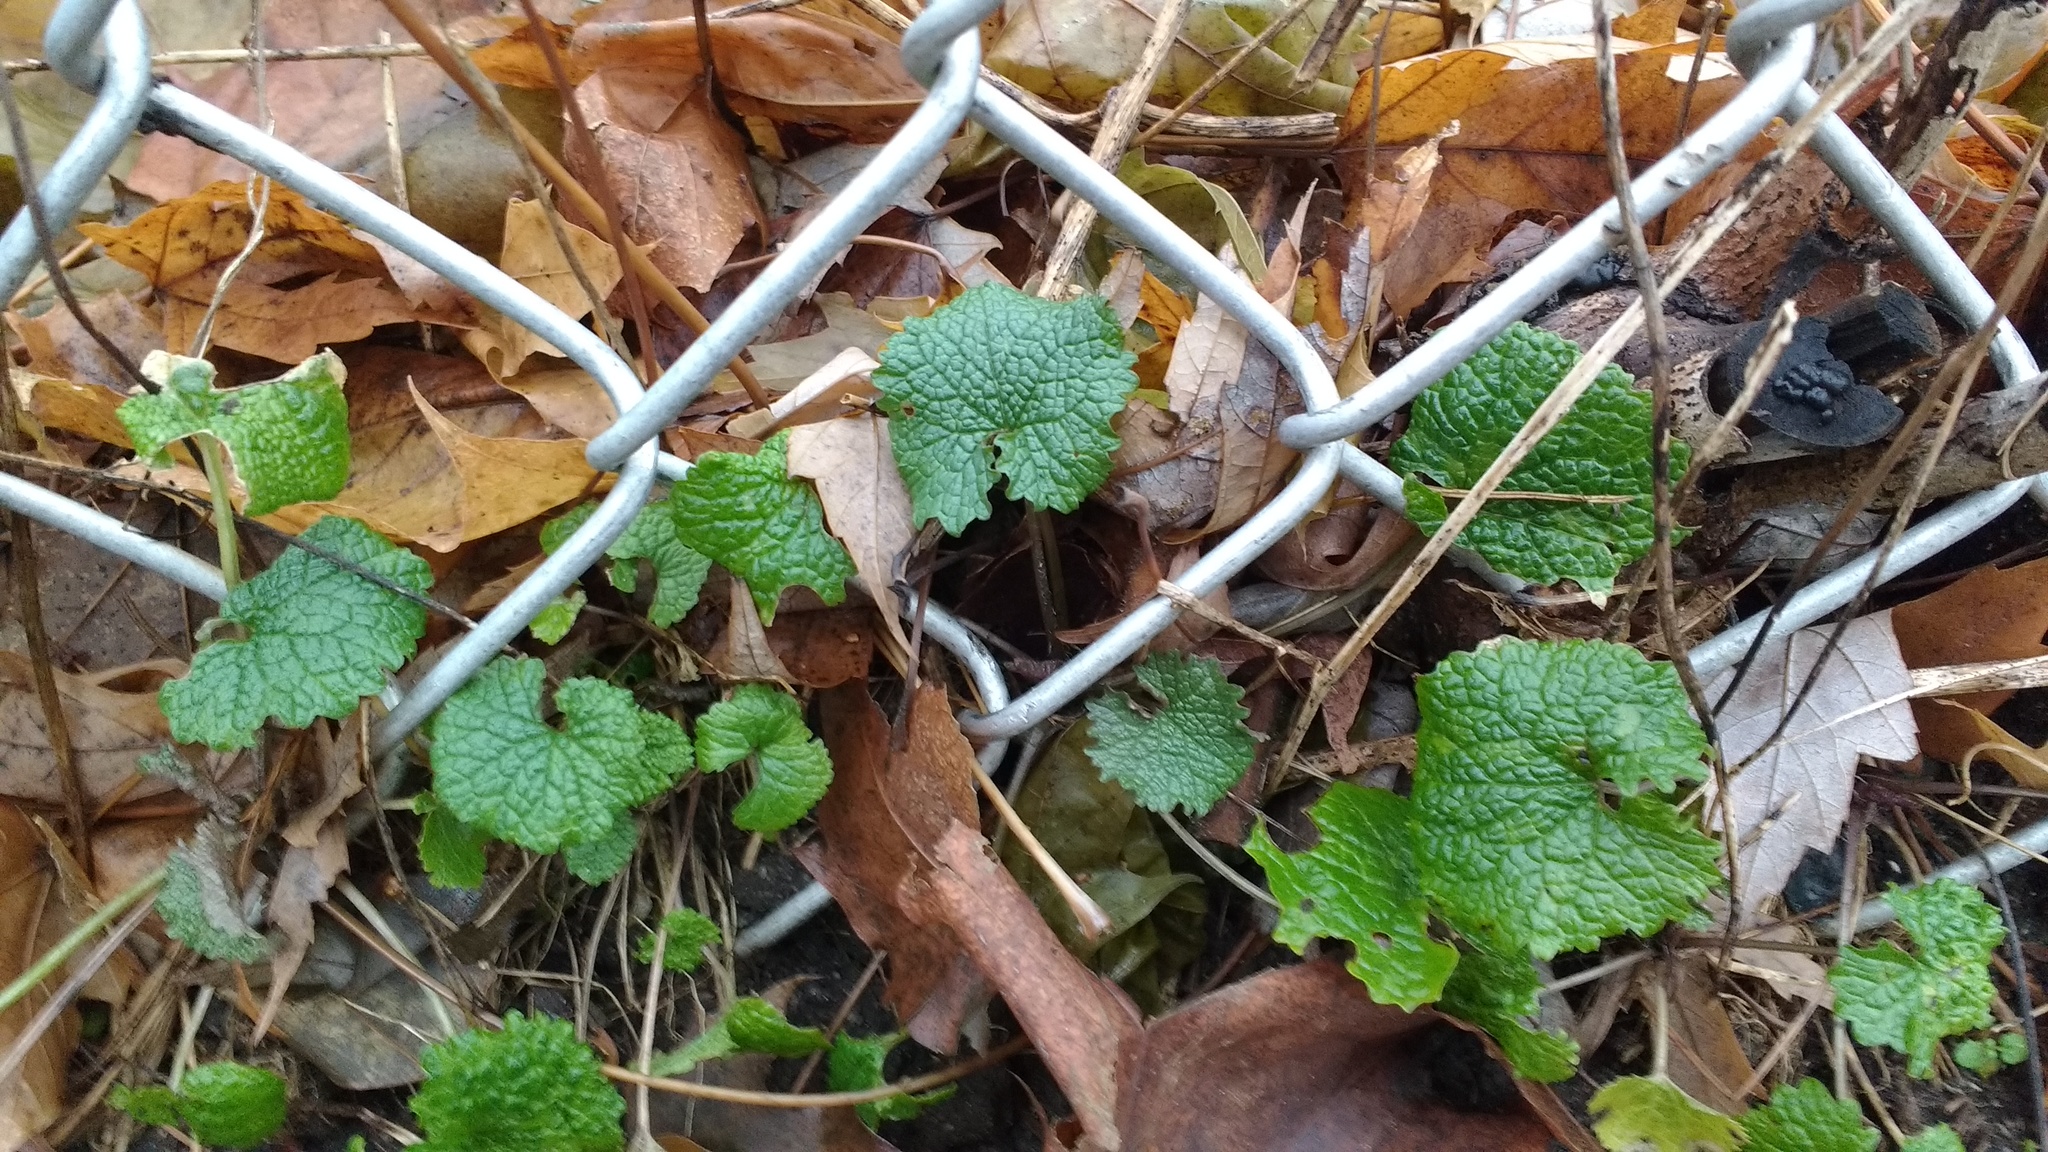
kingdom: Plantae
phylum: Tracheophyta
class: Magnoliopsida
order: Brassicales
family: Brassicaceae
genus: Alliaria
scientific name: Alliaria petiolata
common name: Garlic mustard
